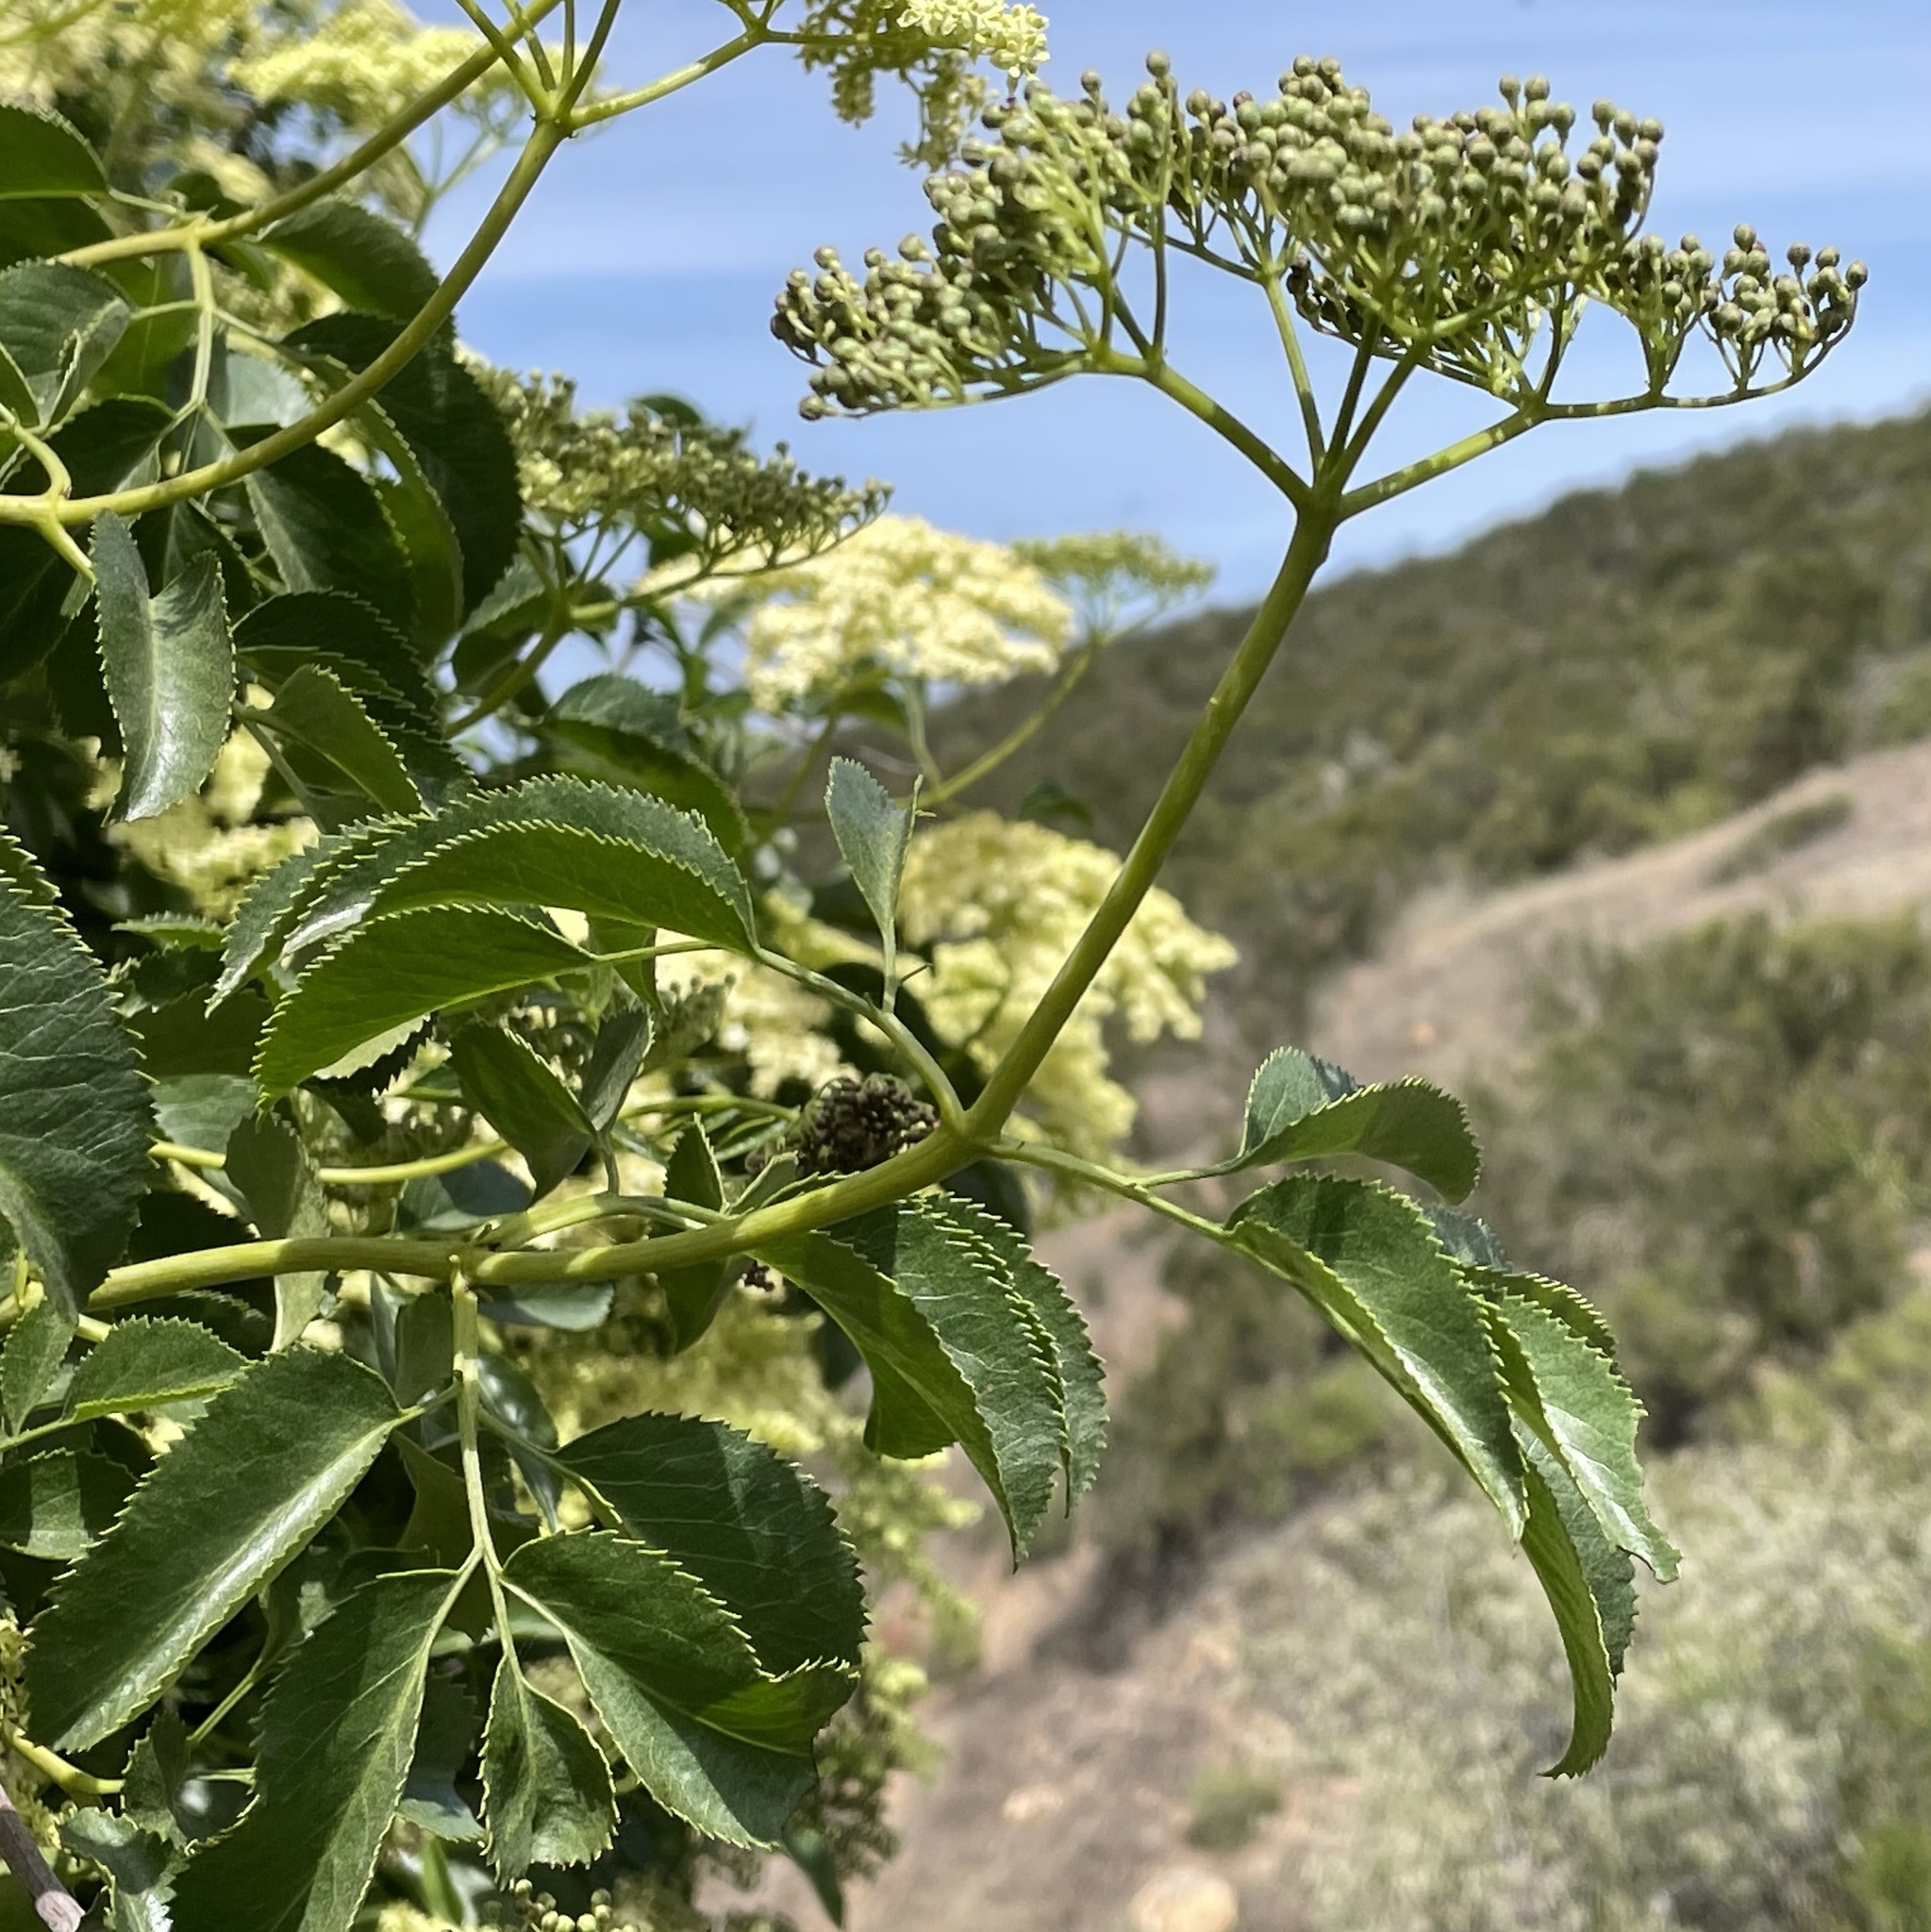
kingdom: Plantae
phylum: Tracheophyta
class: Magnoliopsida
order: Dipsacales
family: Viburnaceae
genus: Sambucus
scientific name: Sambucus cerulea
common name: Blue elder
